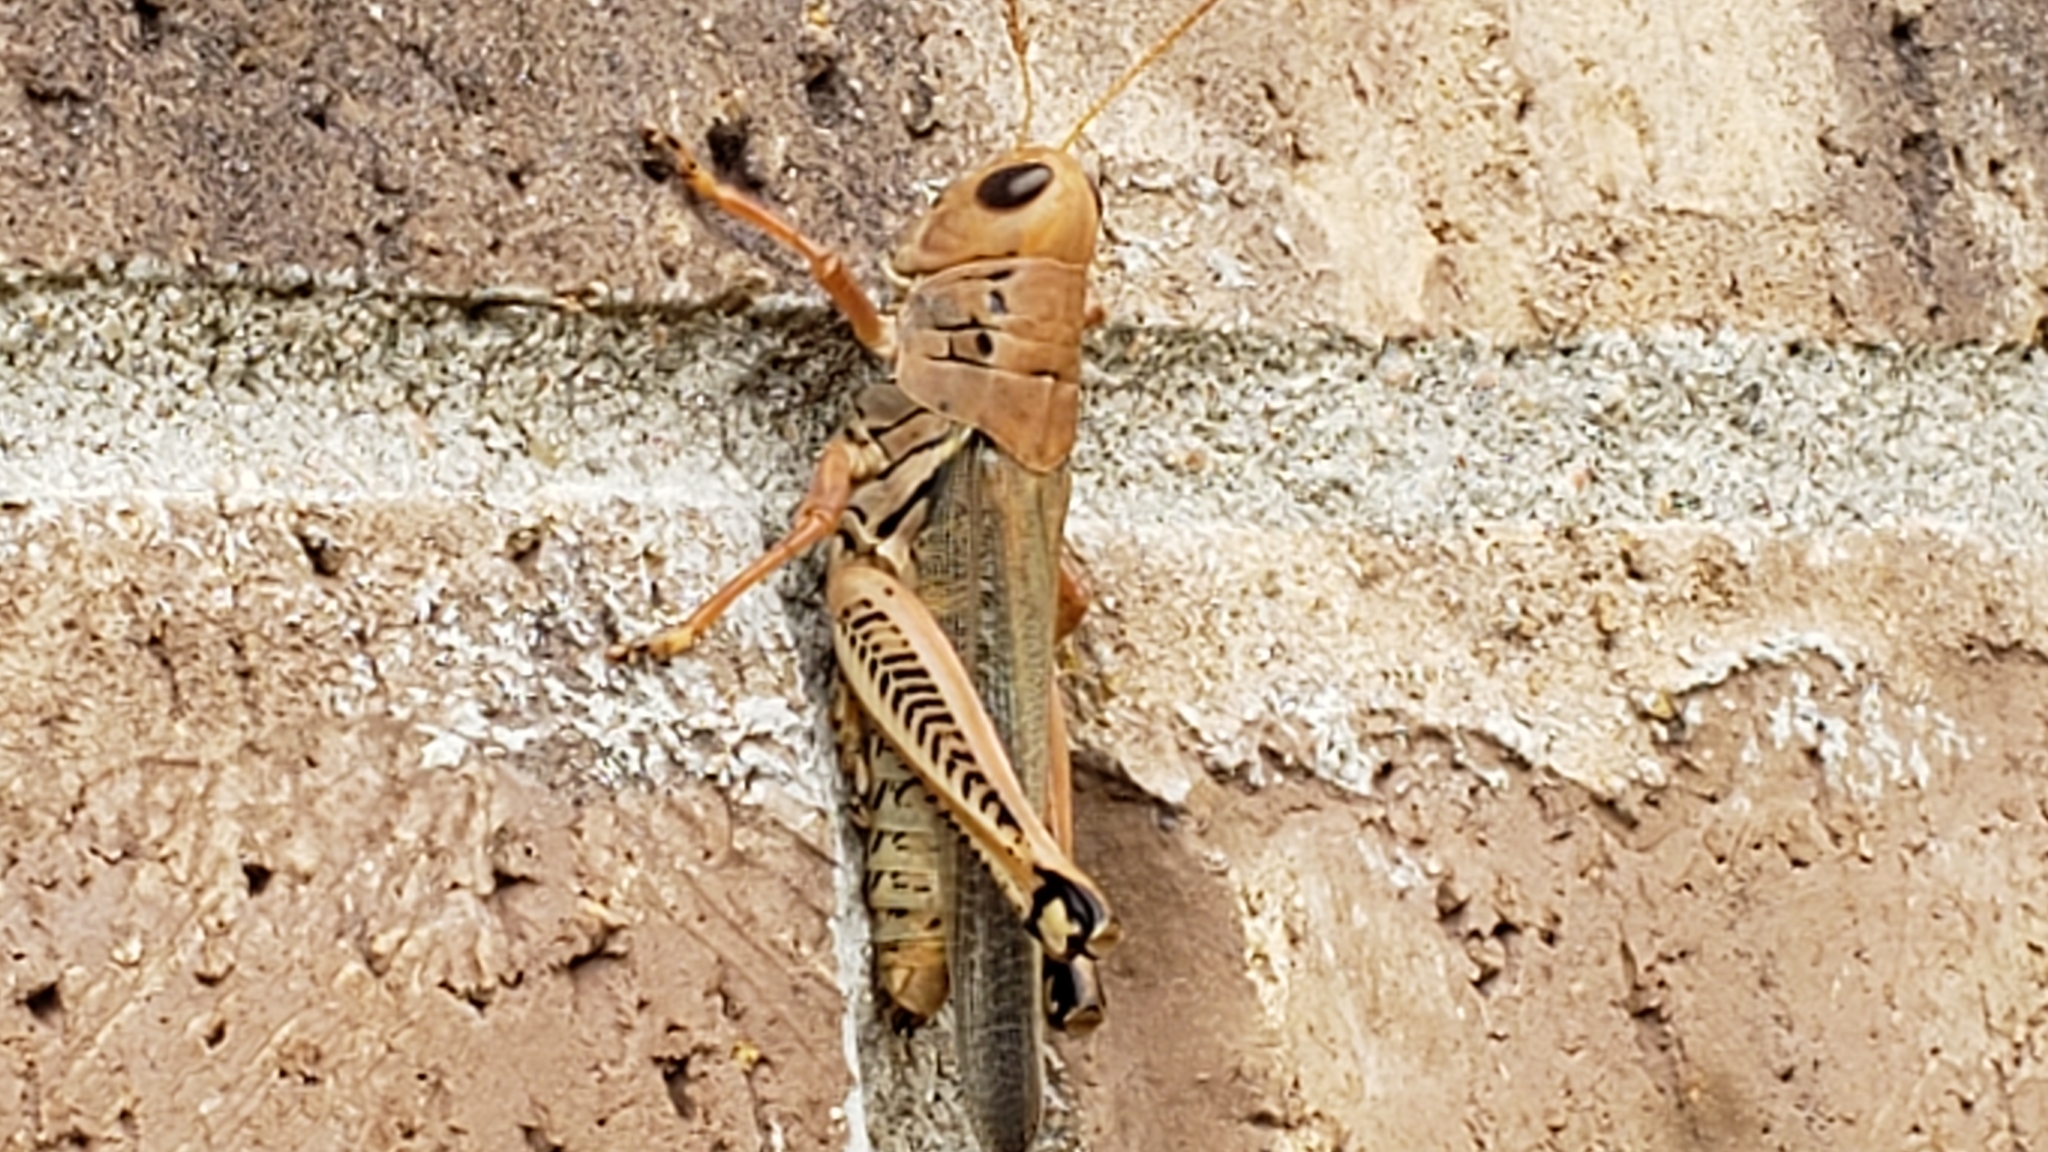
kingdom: Animalia
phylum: Arthropoda
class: Insecta
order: Orthoptera
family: Acrididae
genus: Melanoplus
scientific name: Melanoplus differentialis
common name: Differential grasshopper
